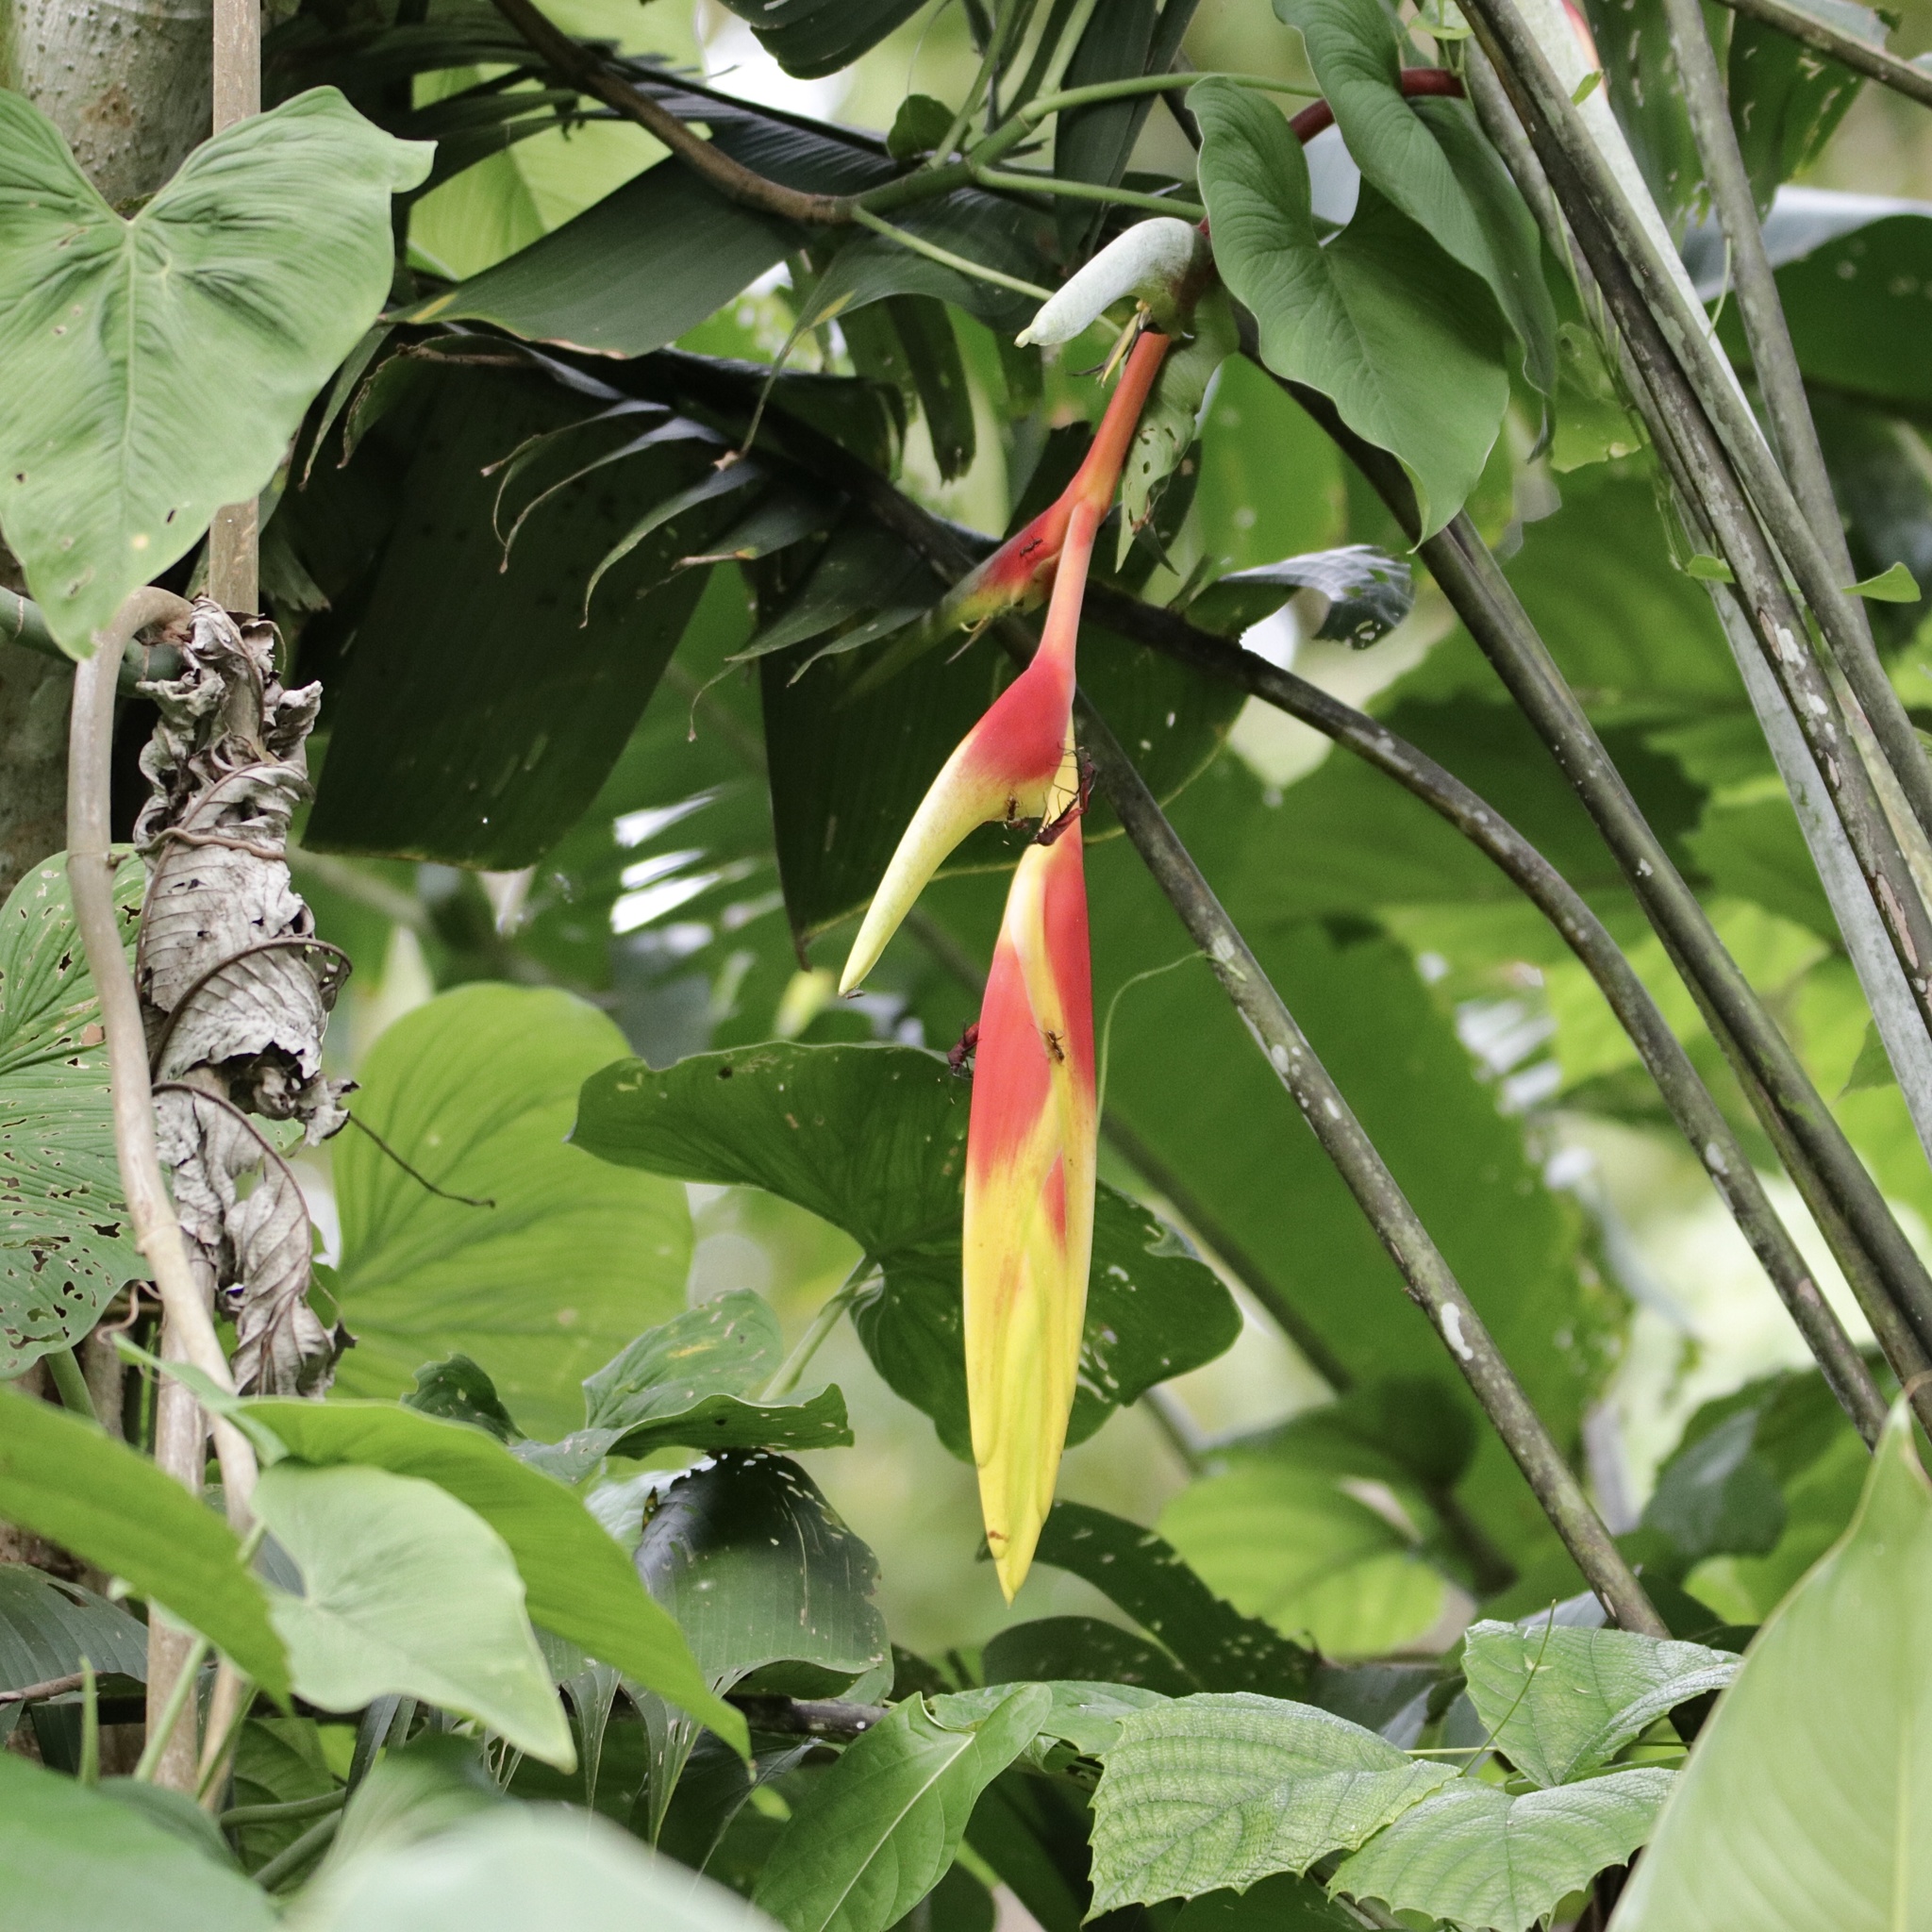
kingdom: Plantae
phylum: Tracheophyta
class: Liliopsida
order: Zingiberales
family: Heliconiaceae
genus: Heliconia
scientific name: Heliconia rostrata
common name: False bird of paradise
